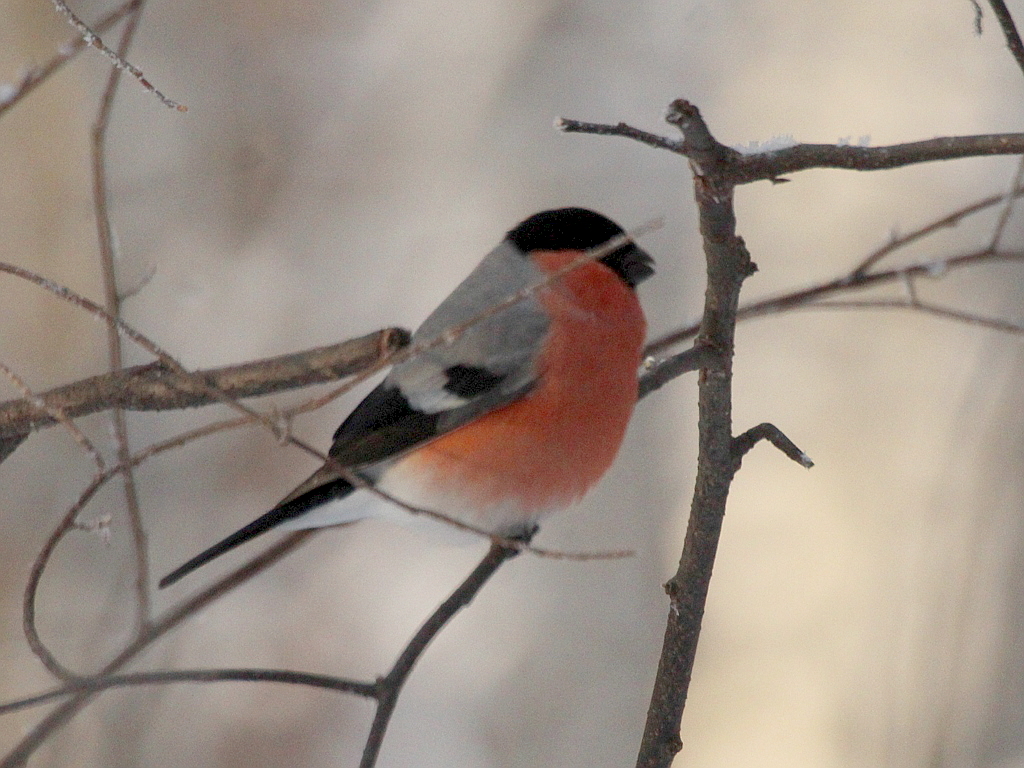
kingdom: Animalia
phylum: Chordata
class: Aves
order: Passeriformes
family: Fringillidae
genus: Pyrrhula
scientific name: Pyrrhula pyrrhula
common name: Eurasian bullfinch
